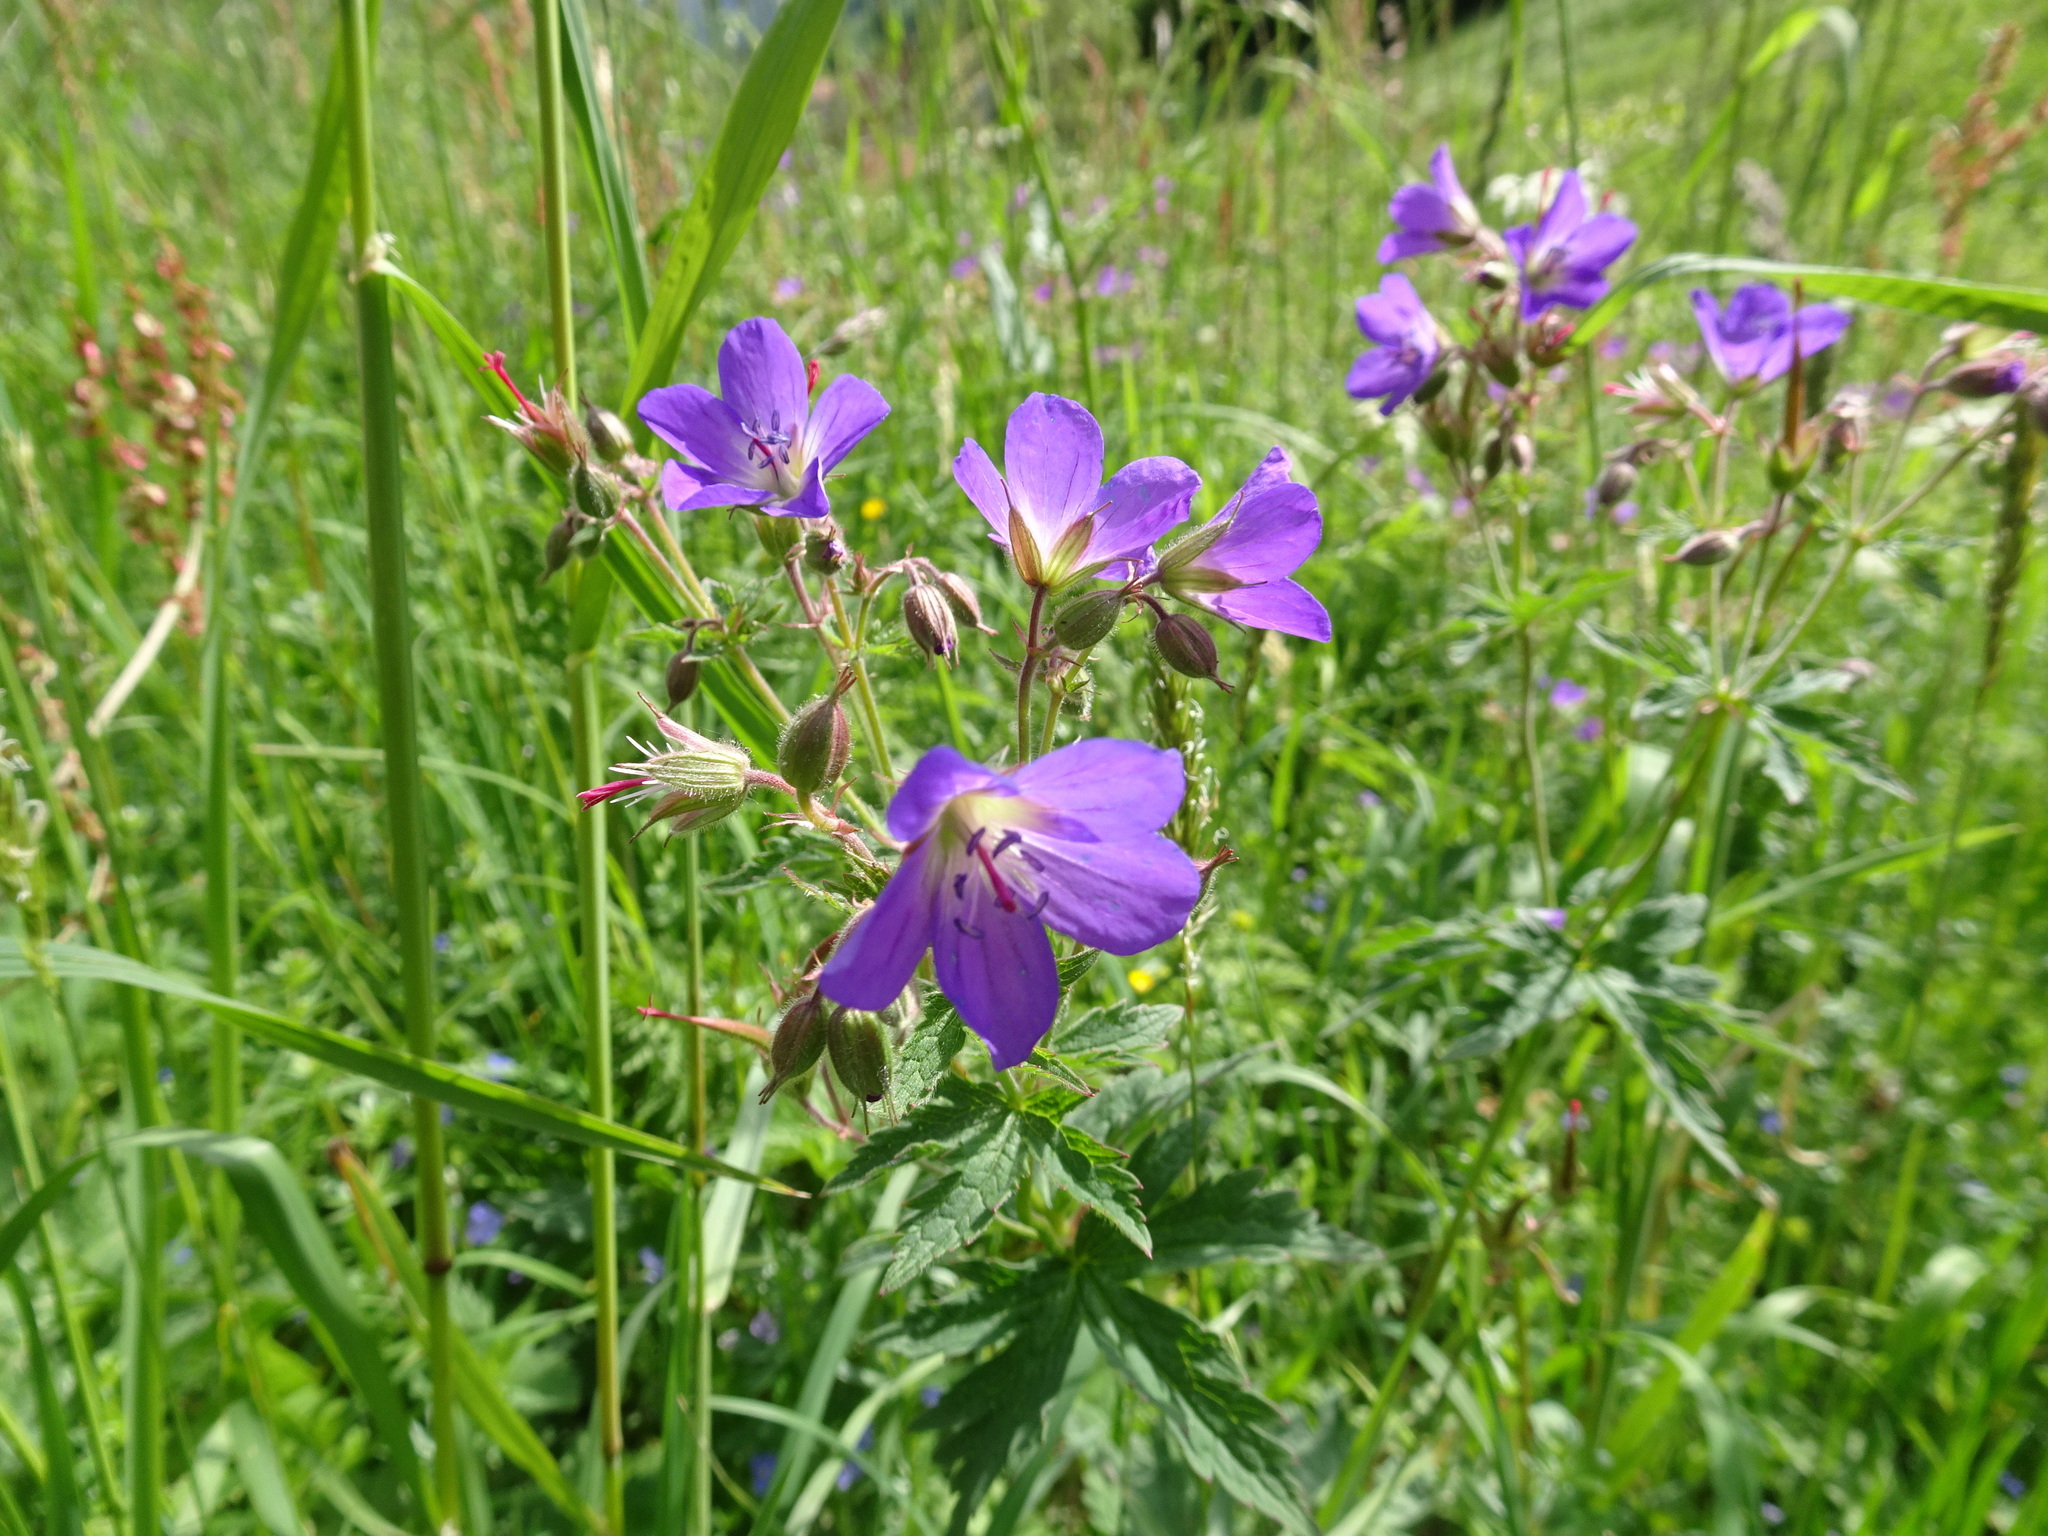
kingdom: Plantae
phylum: Tracheophyta
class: Magnoliopsida
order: Geraniales
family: Geraniaceae
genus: Geranium
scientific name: Geranium sylvaticum
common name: Wood crane's-bill
